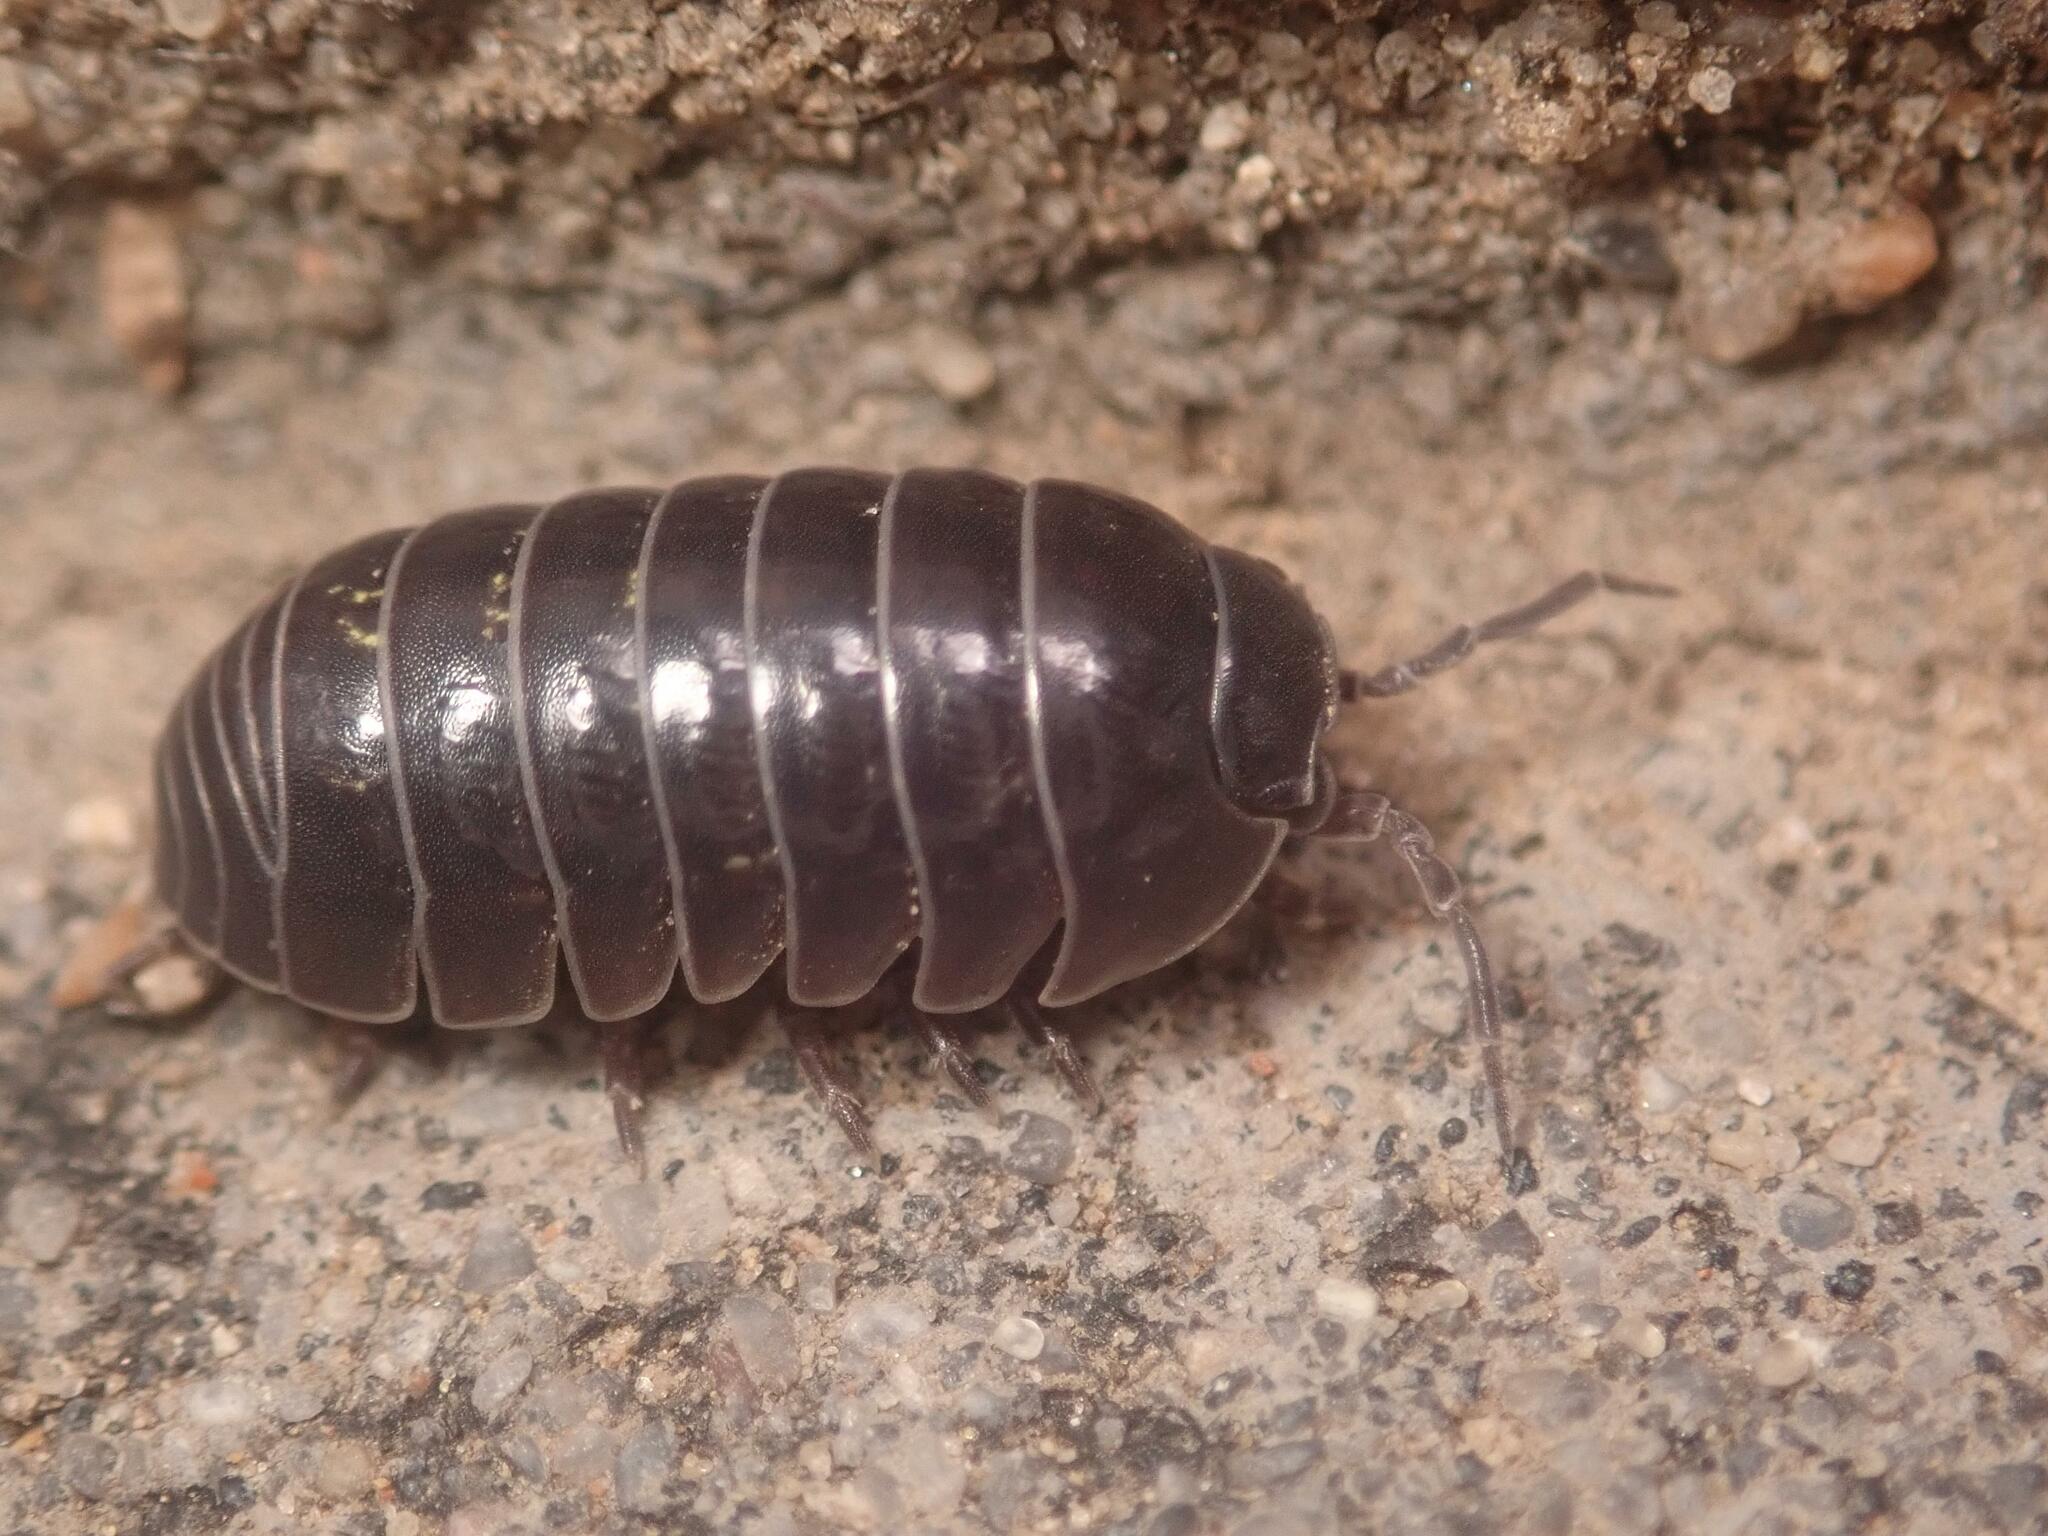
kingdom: Animalia
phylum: Arthropoda
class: Malacostraca
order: Isopoda
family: Armadillidiidae
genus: Armadillidium
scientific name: Armadillidium vulgare
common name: Common pill woodlouse
